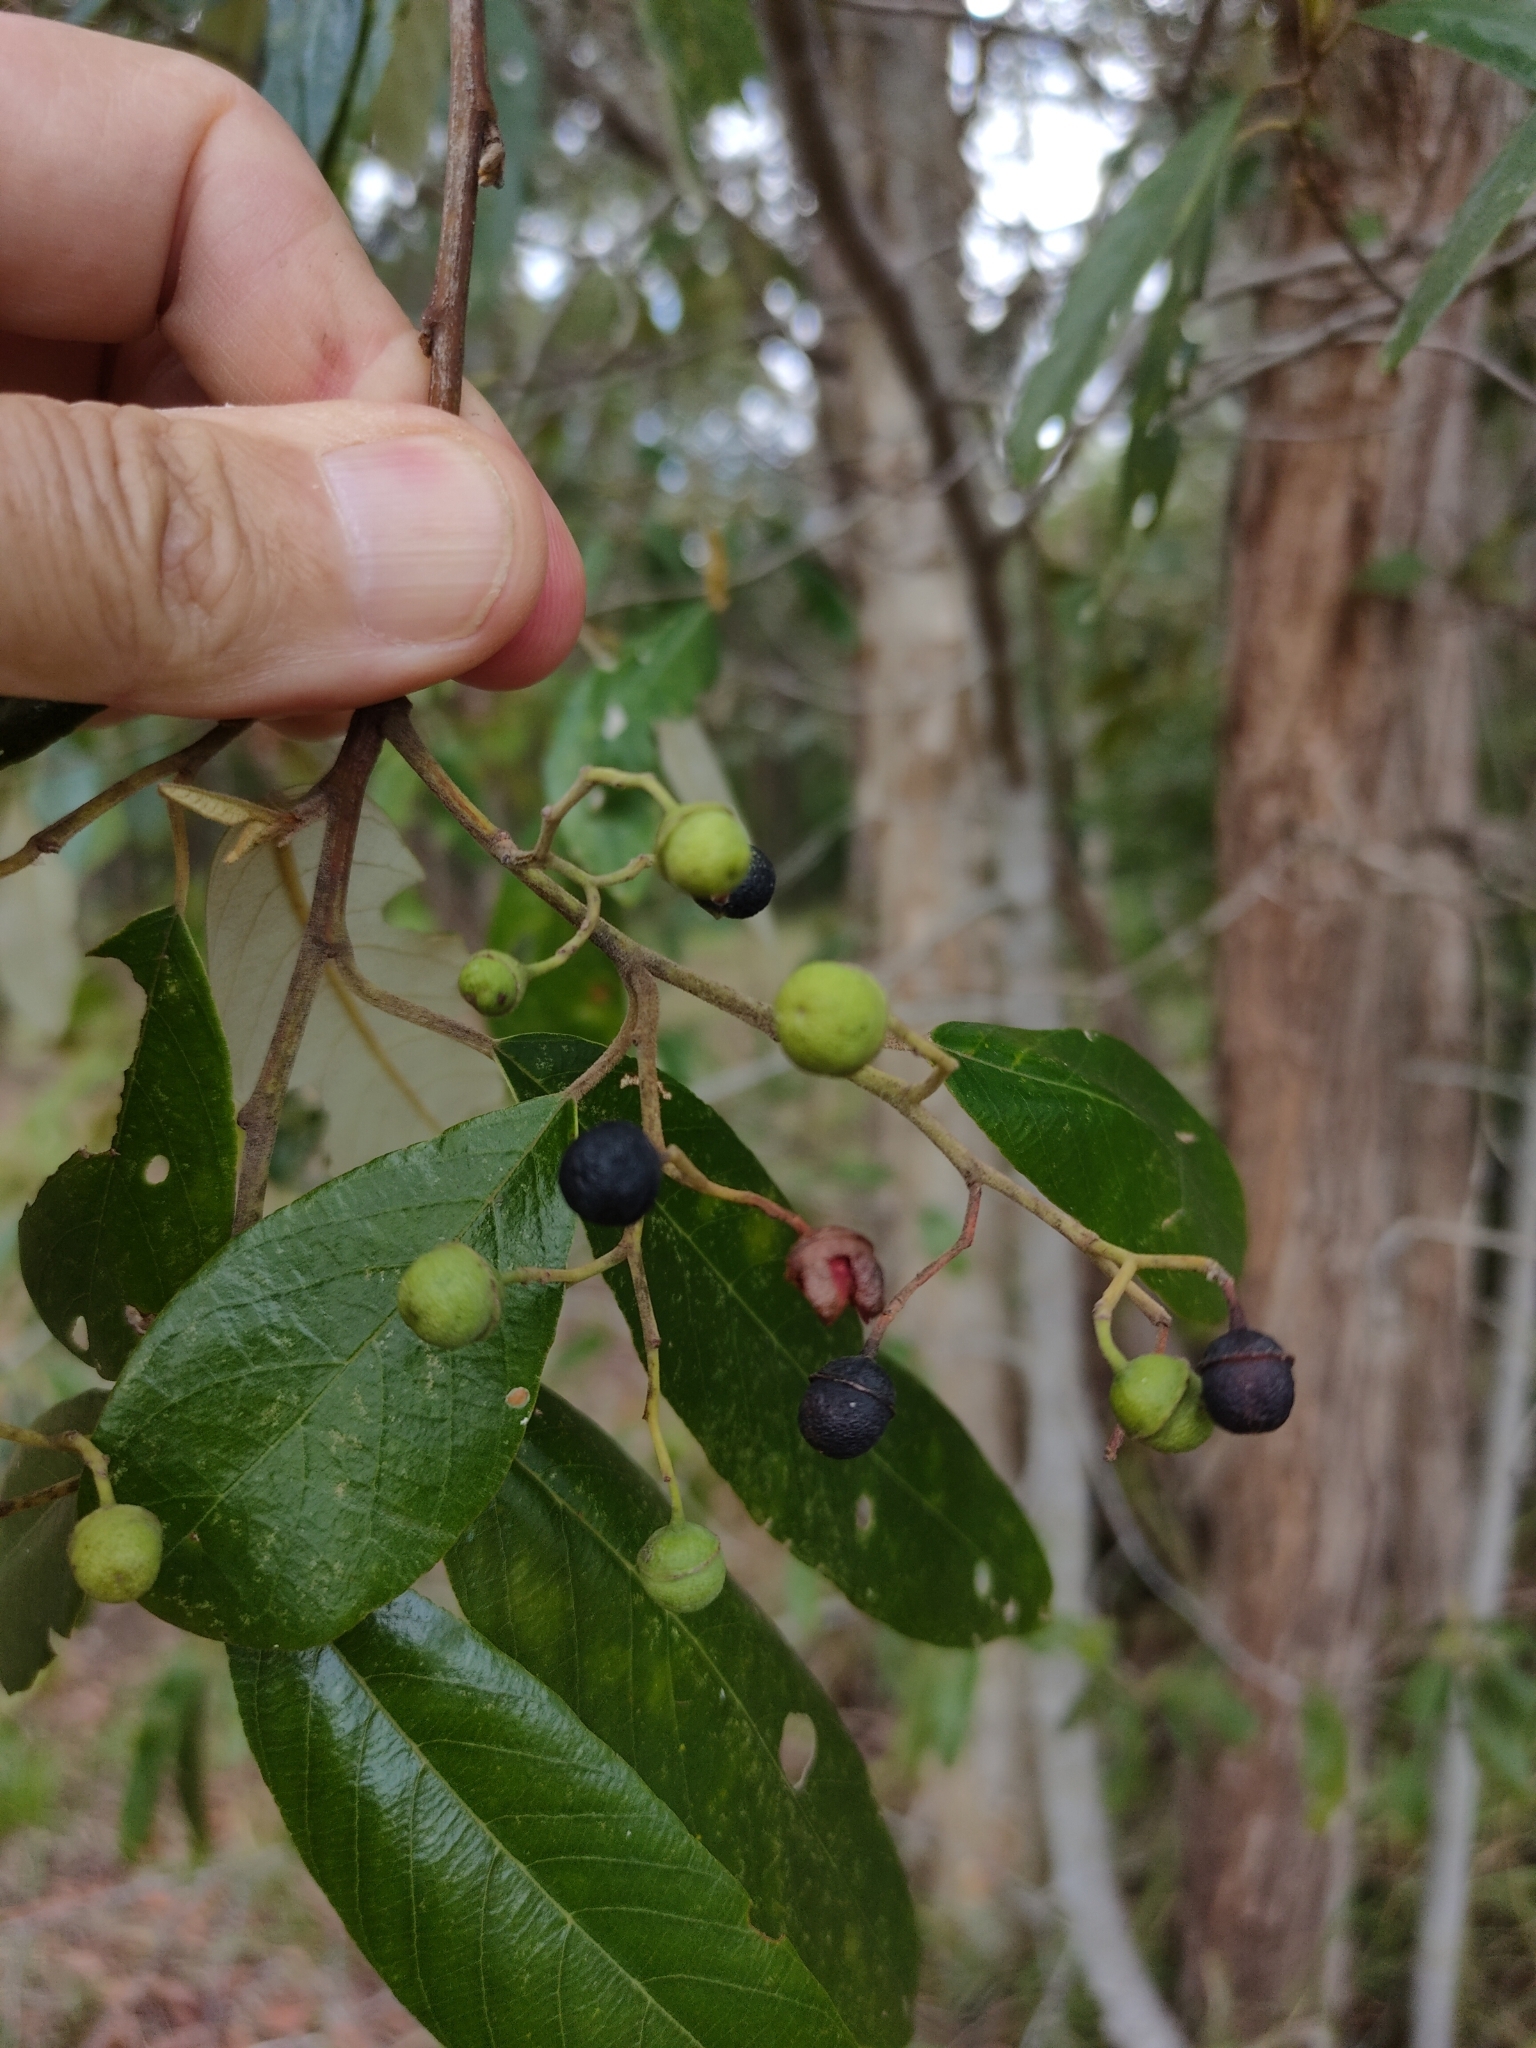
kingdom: Plantae
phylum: Tracheophyta
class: Magnoliopsida
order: Rosales
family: Rhamnaceae
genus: Alphitonia
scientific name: Alphitonia excelsa
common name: Red ash
